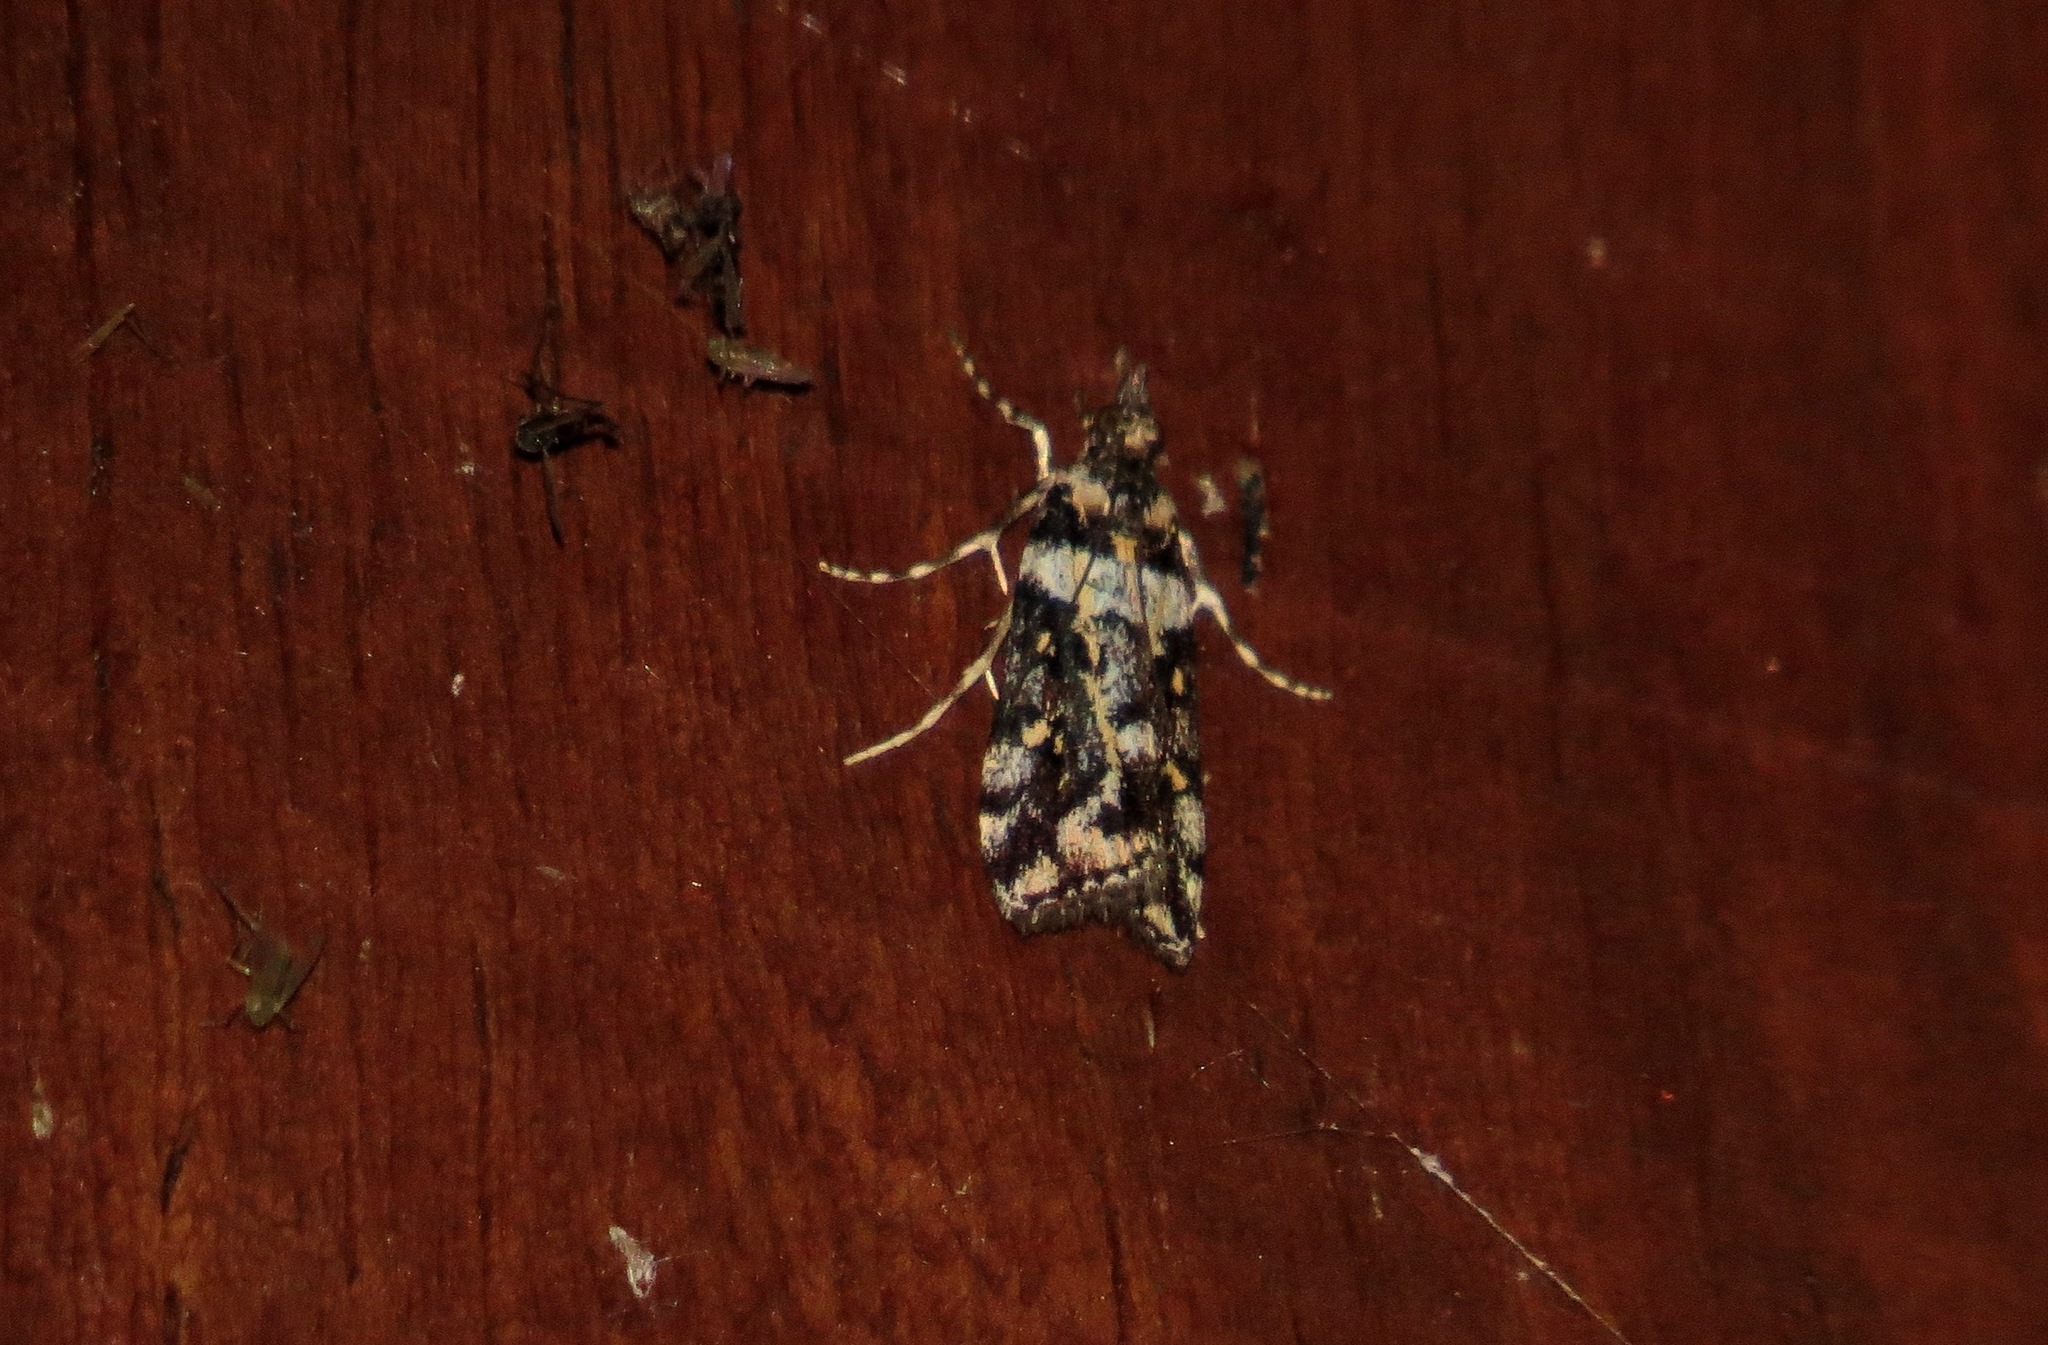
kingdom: Animalia
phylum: Arthropoda
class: Insecta
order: Lepidoptera
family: Crambidae
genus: Eudonia
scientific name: Eudonia diphtheralis
